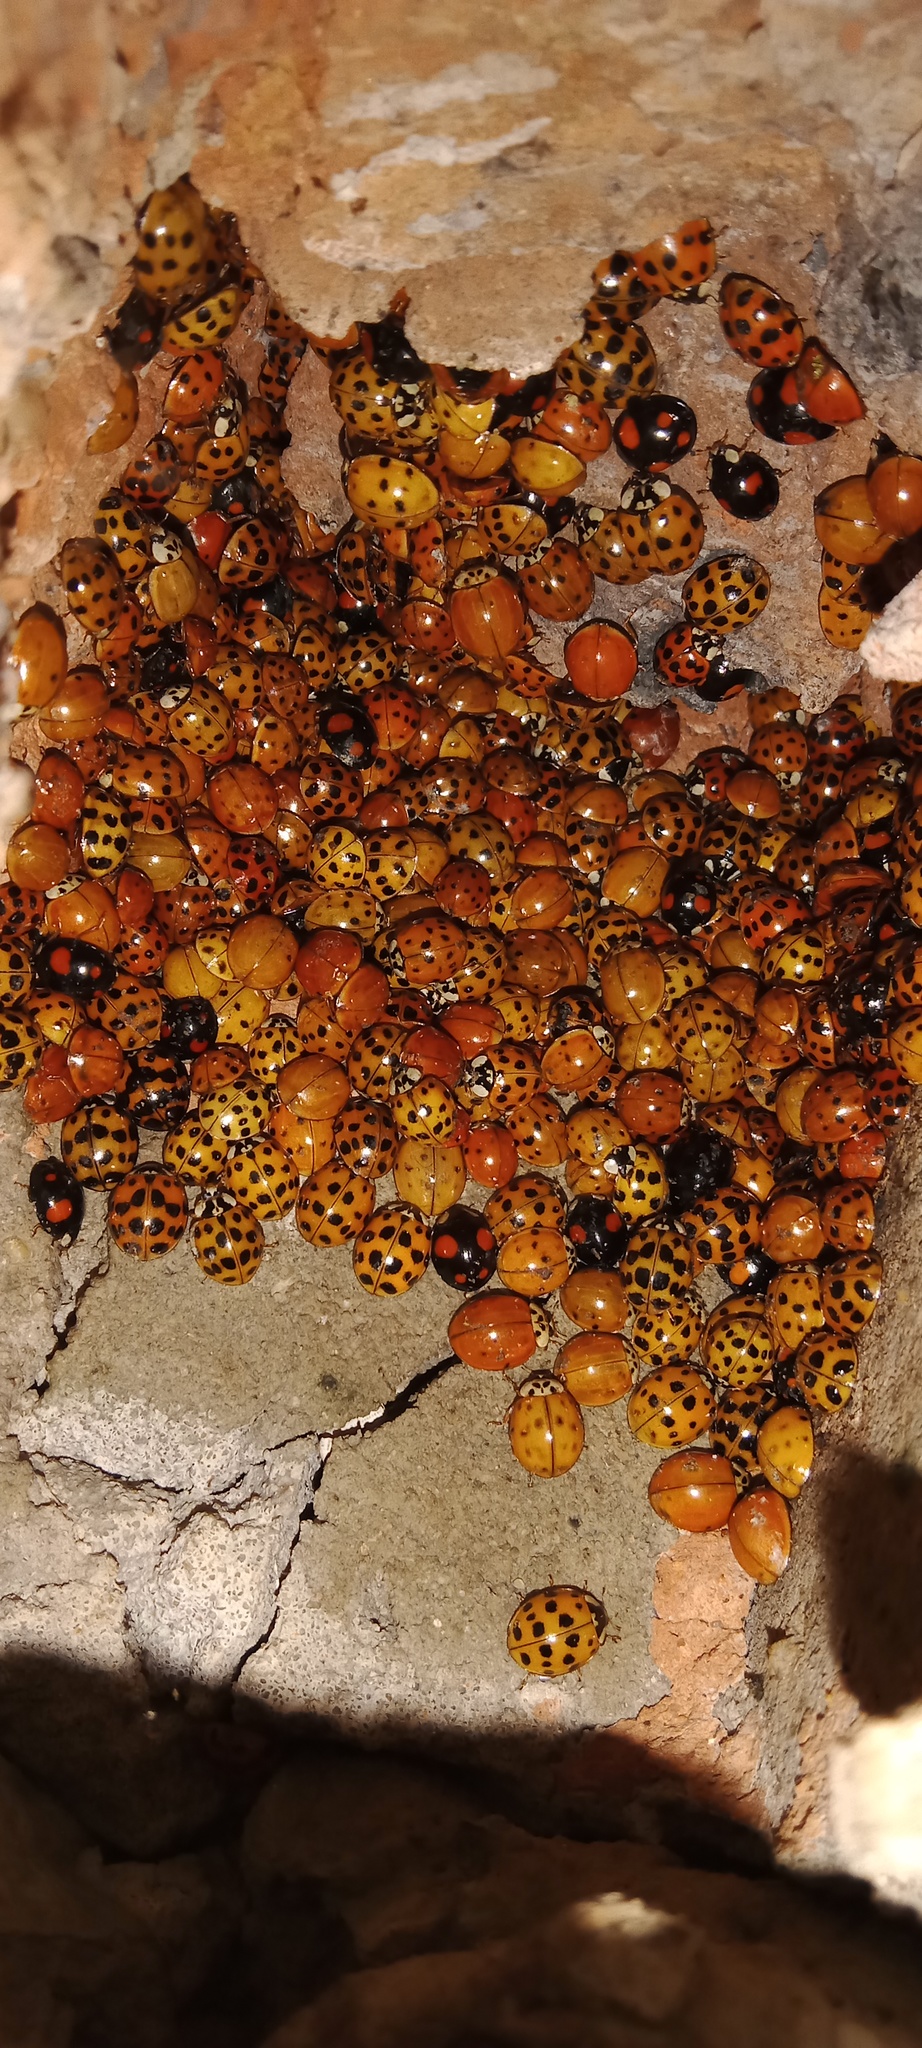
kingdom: Animalia
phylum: Arthropoda
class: Insecta
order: Coleoptera
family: Coccinellidae
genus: Harmonia
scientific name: Harmonia axyridis
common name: Harlequin ladybird
